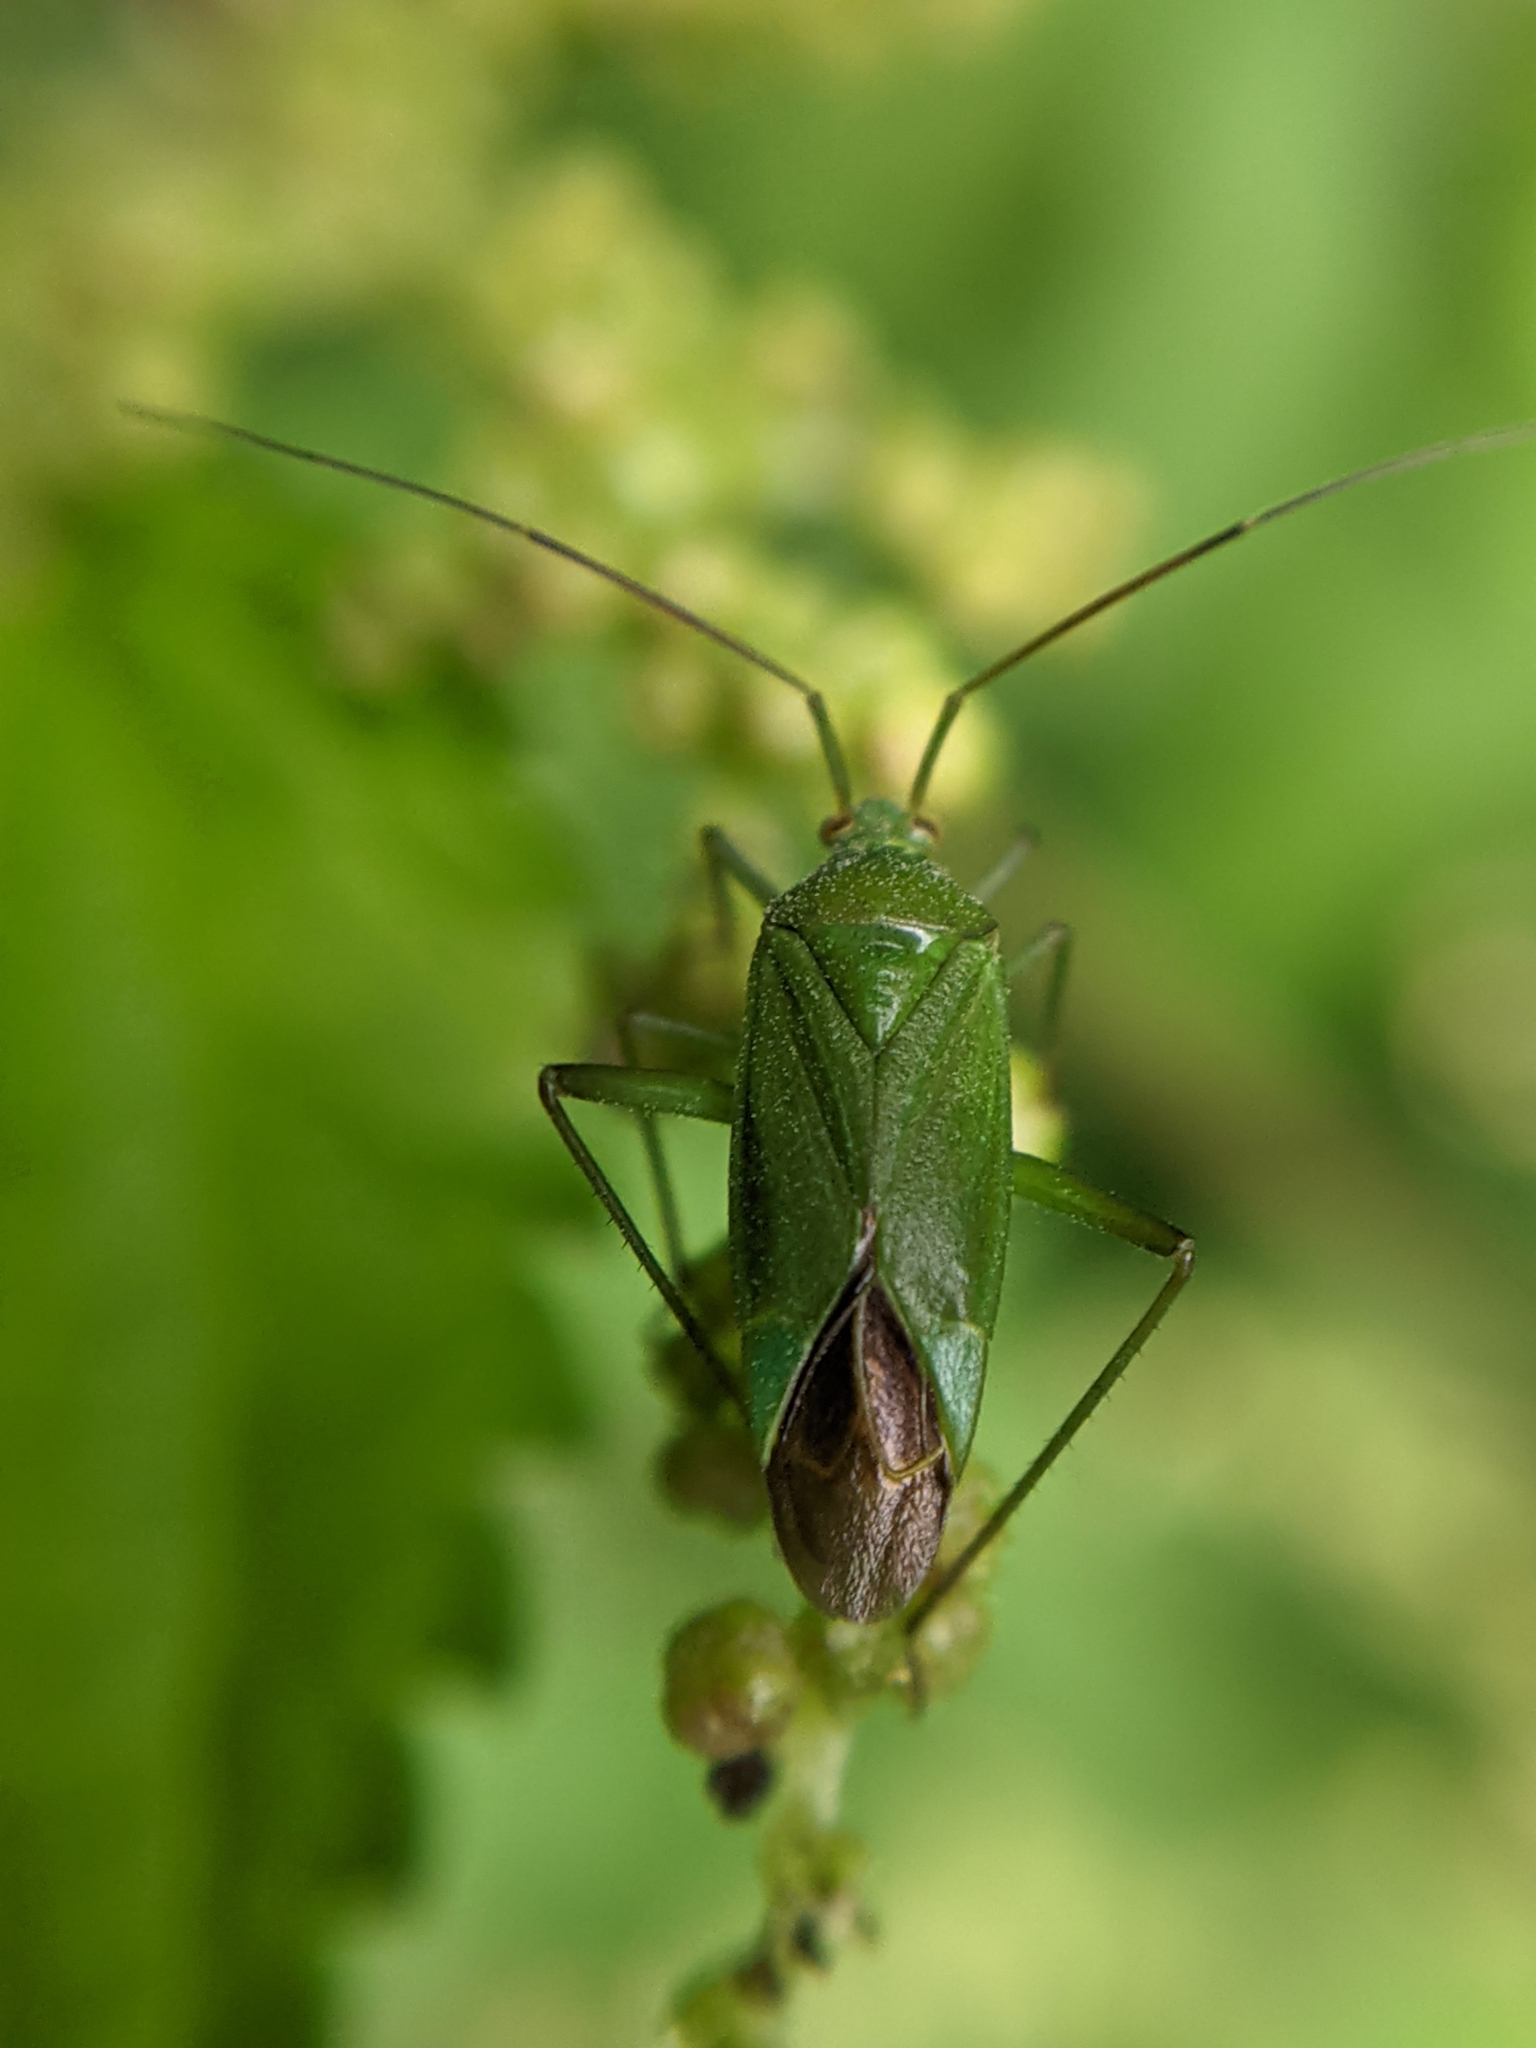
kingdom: Animalia
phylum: Arthropoda
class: Insecta
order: Hemiptera
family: Miridae
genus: Calocoris
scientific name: Calocoris affinis
